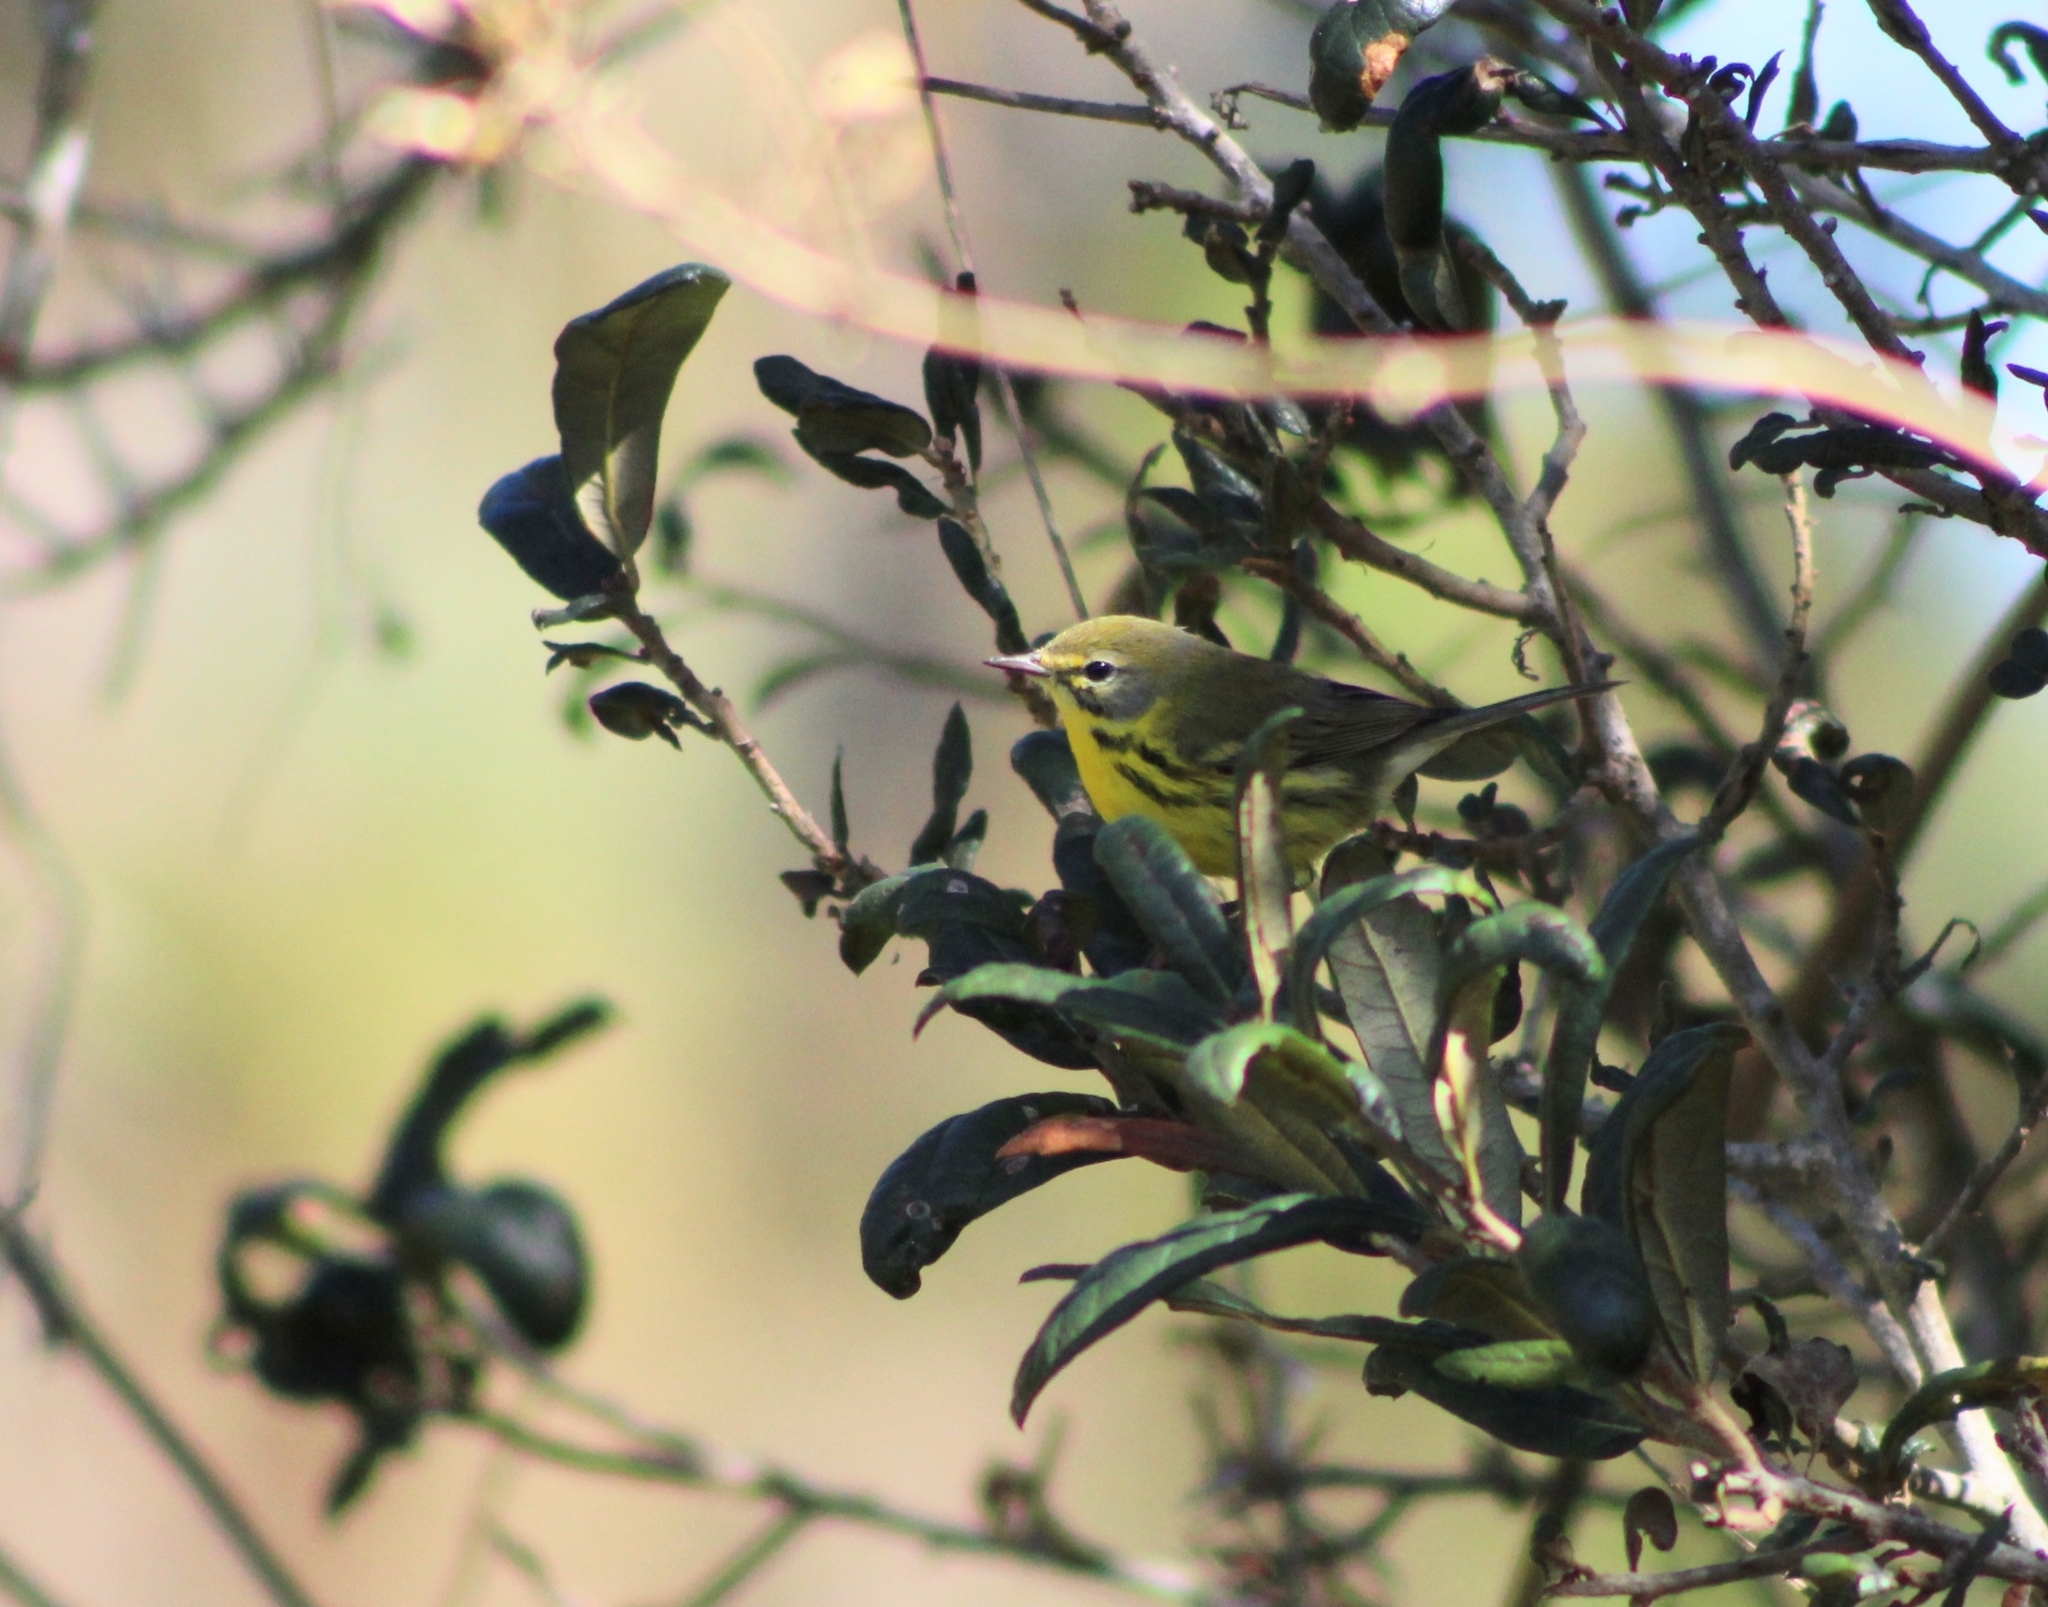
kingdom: Animalia
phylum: Chordata
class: Aves
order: Passeriformes
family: Parulidae
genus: Setophaga
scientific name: Setophaga discolor
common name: Prairie warbler
